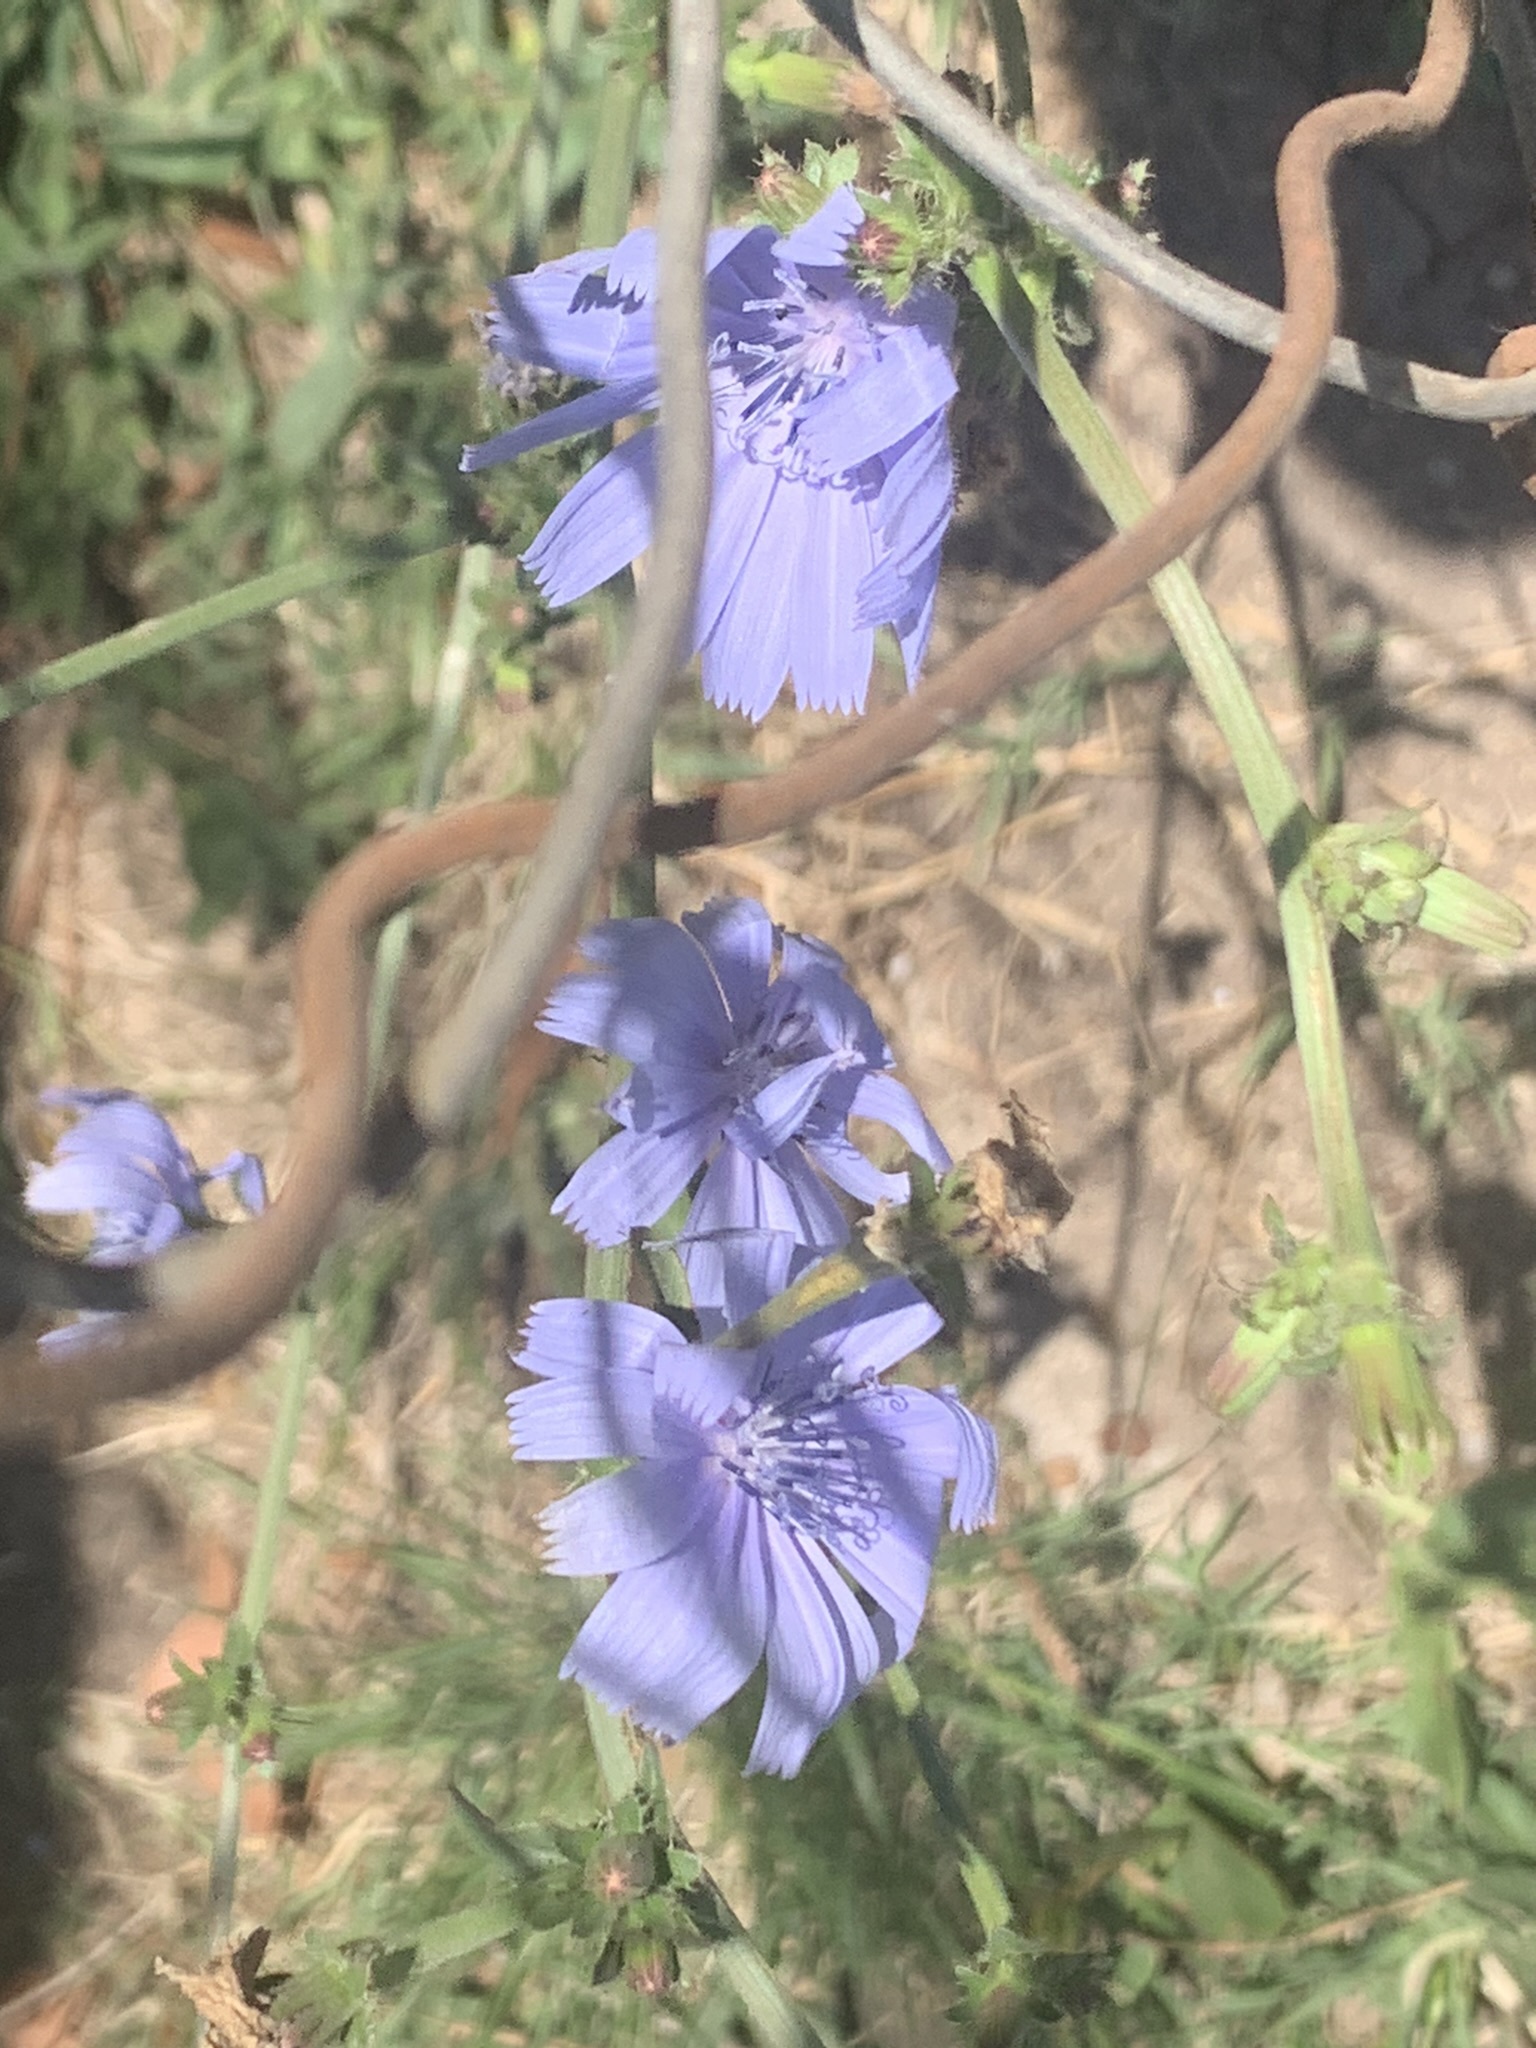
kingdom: Plantae
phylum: Tracheophyta
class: Magnoliopsida
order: Asterales
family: Asteraceae
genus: Cichorium
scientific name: Cichorium intybus
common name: Chicory
